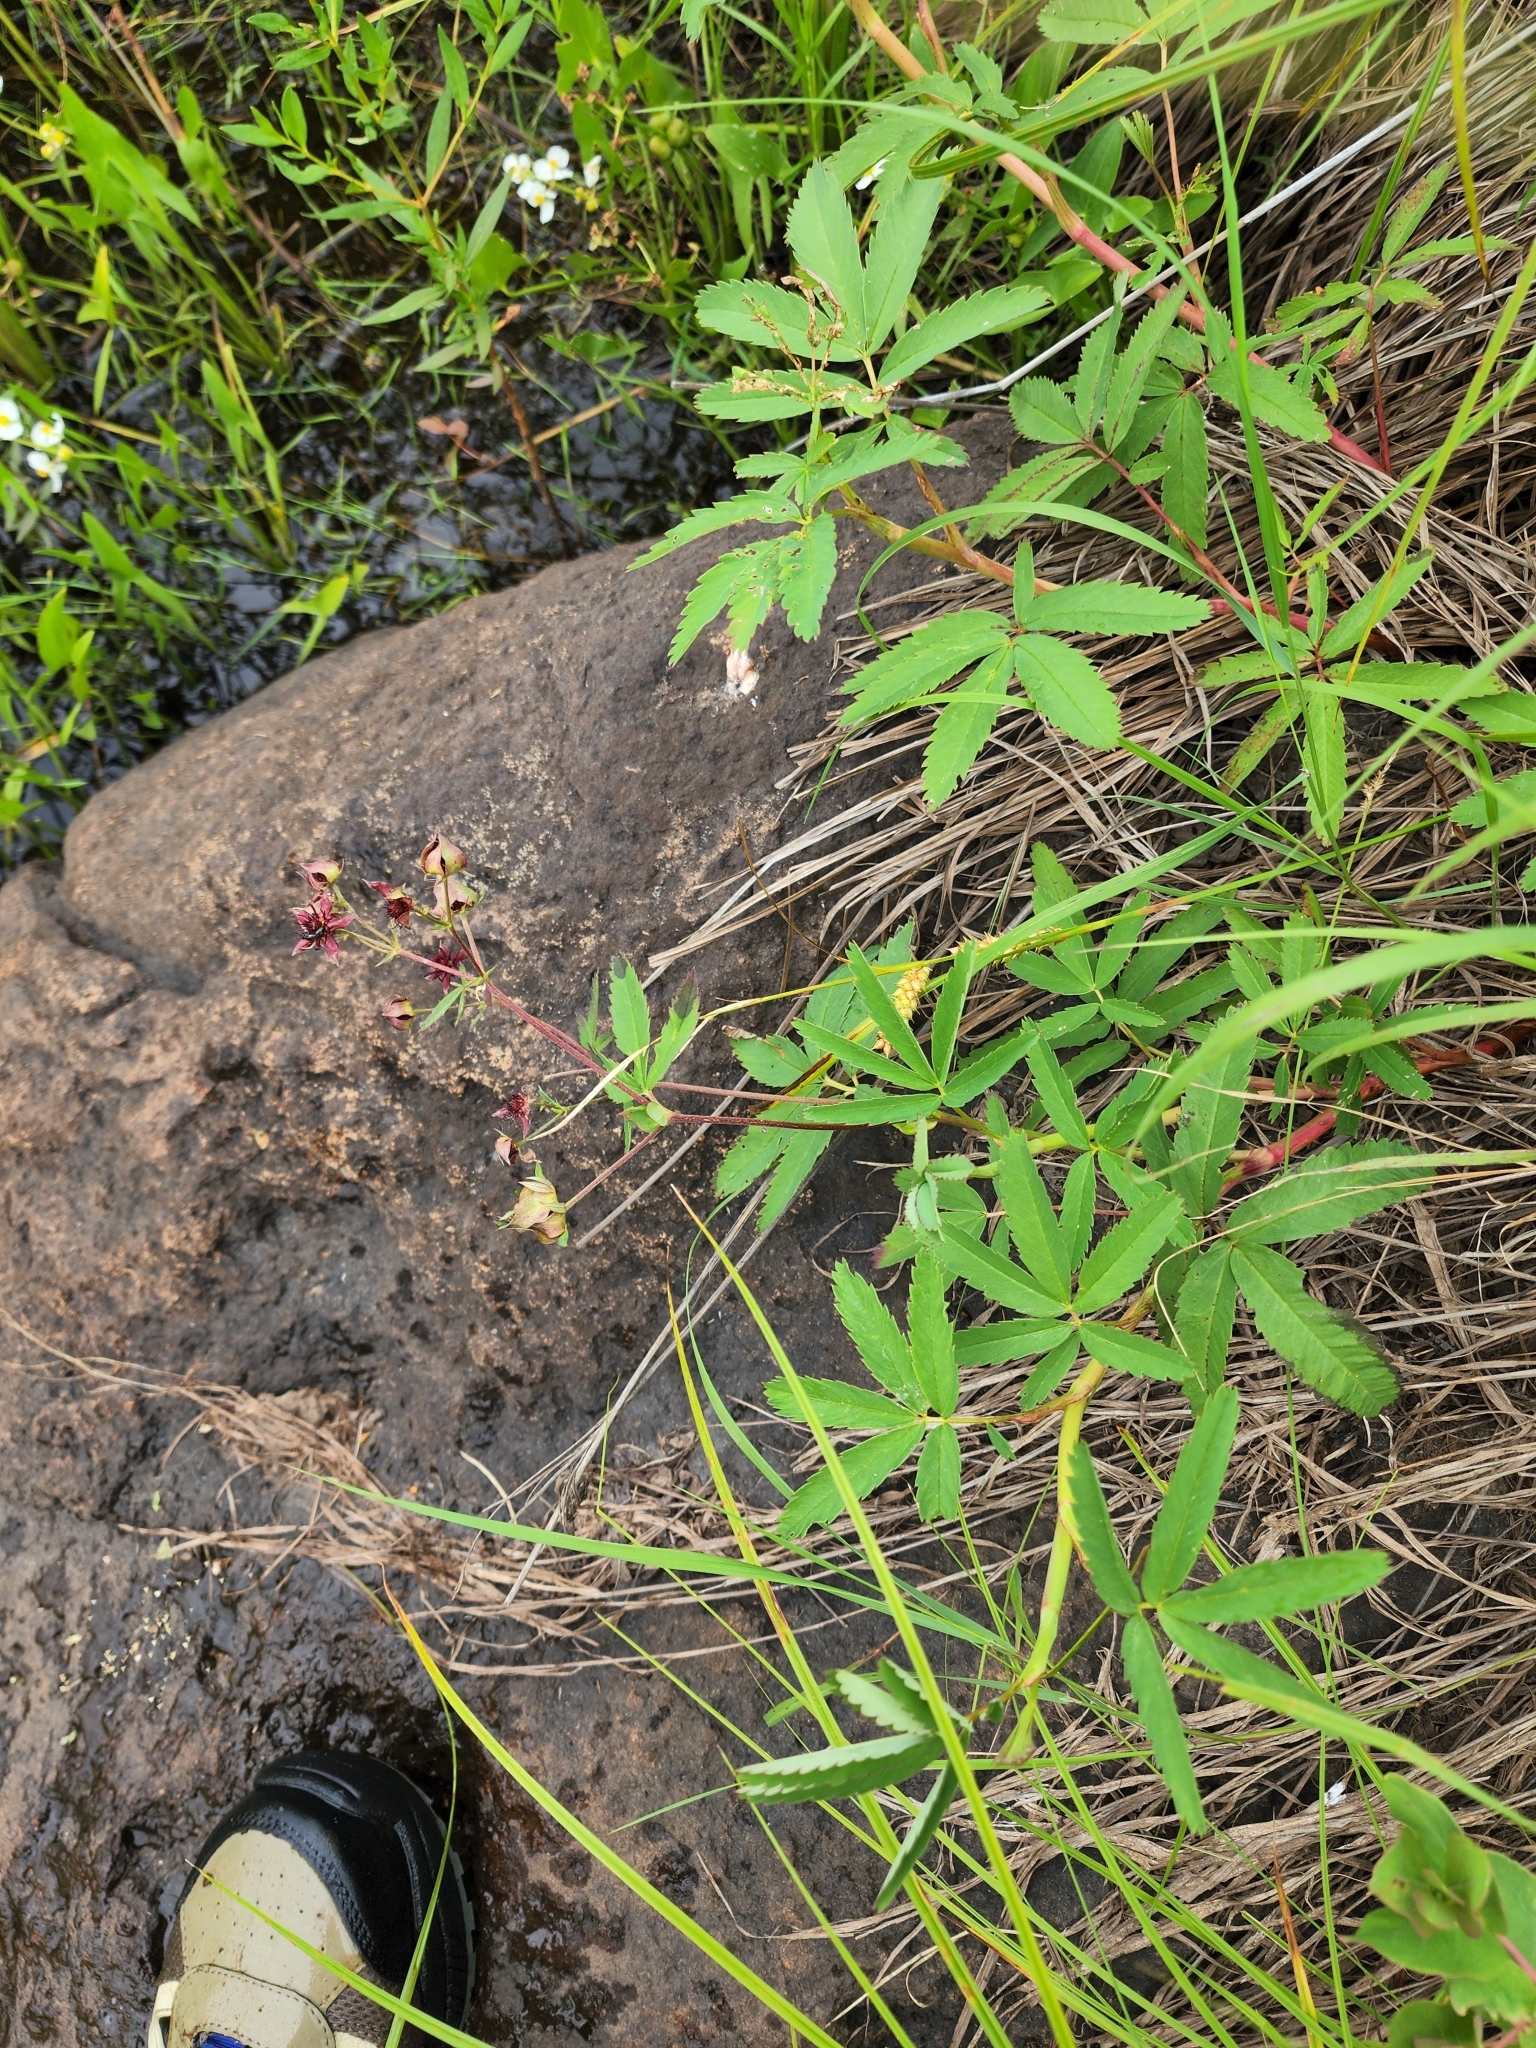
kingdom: Plantae
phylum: Tracheophyta
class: Magnoliopsida
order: Rosales
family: Rosaceae
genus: Comarum
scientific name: Comarum palustre
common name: Marsh cinquefoil
